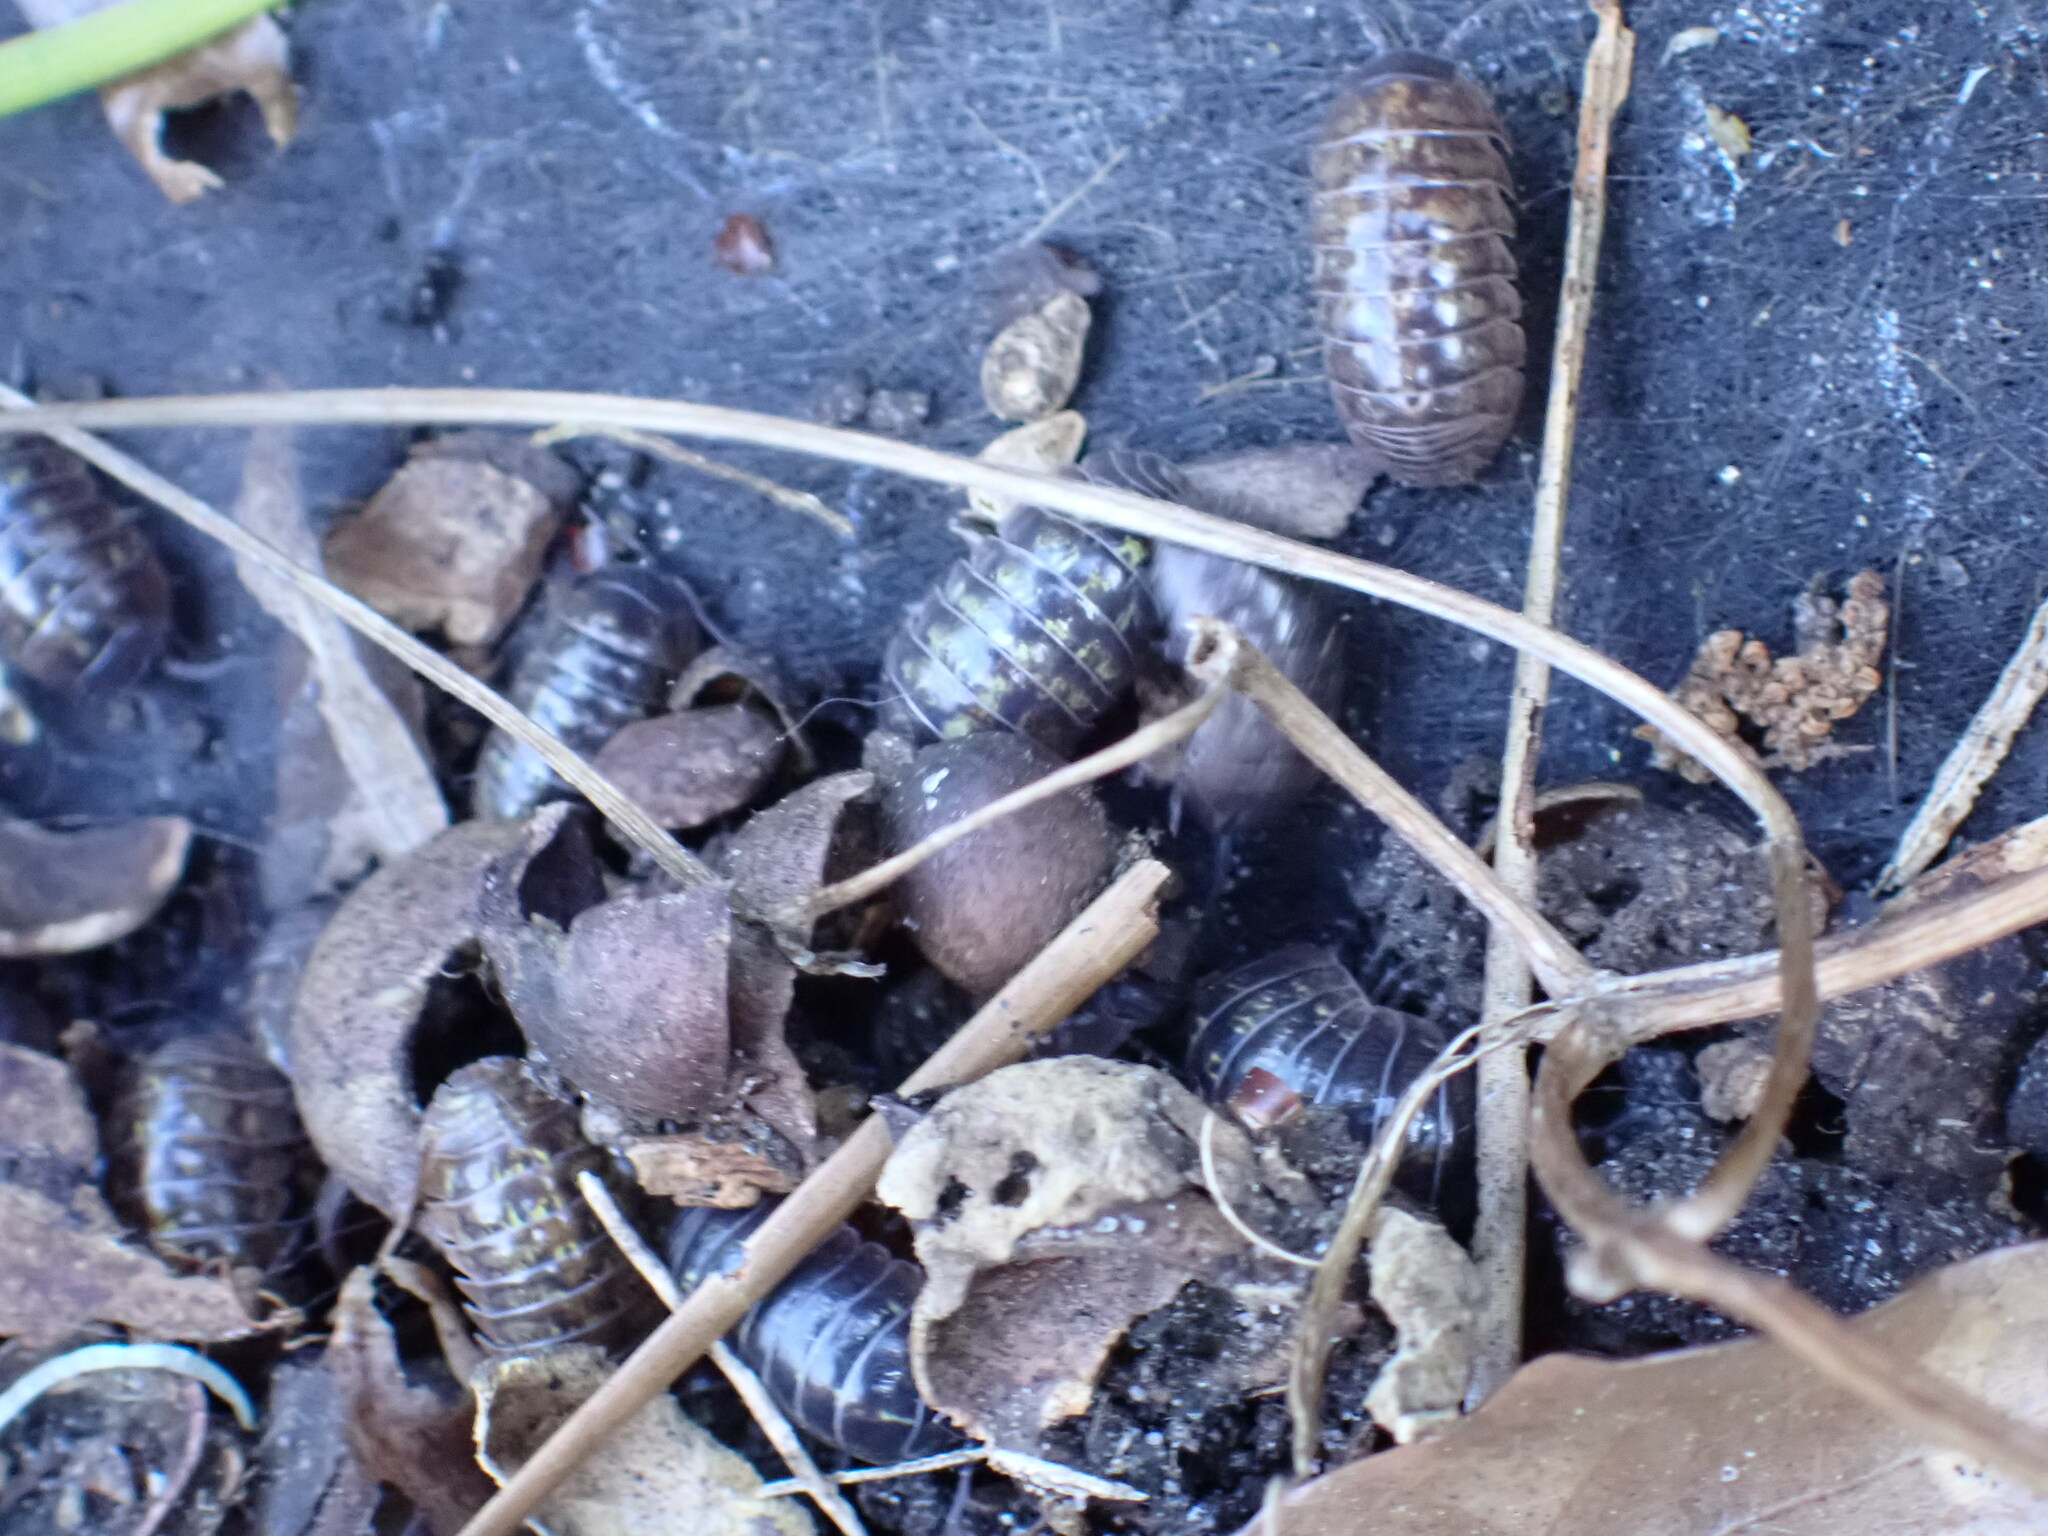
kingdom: Animalia
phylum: Arthropoda
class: Malacostraca
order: Isopoda
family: Armadillidiidae
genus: Armadillidium
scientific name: Armadillidium vulgare
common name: Common pill woodlouse
